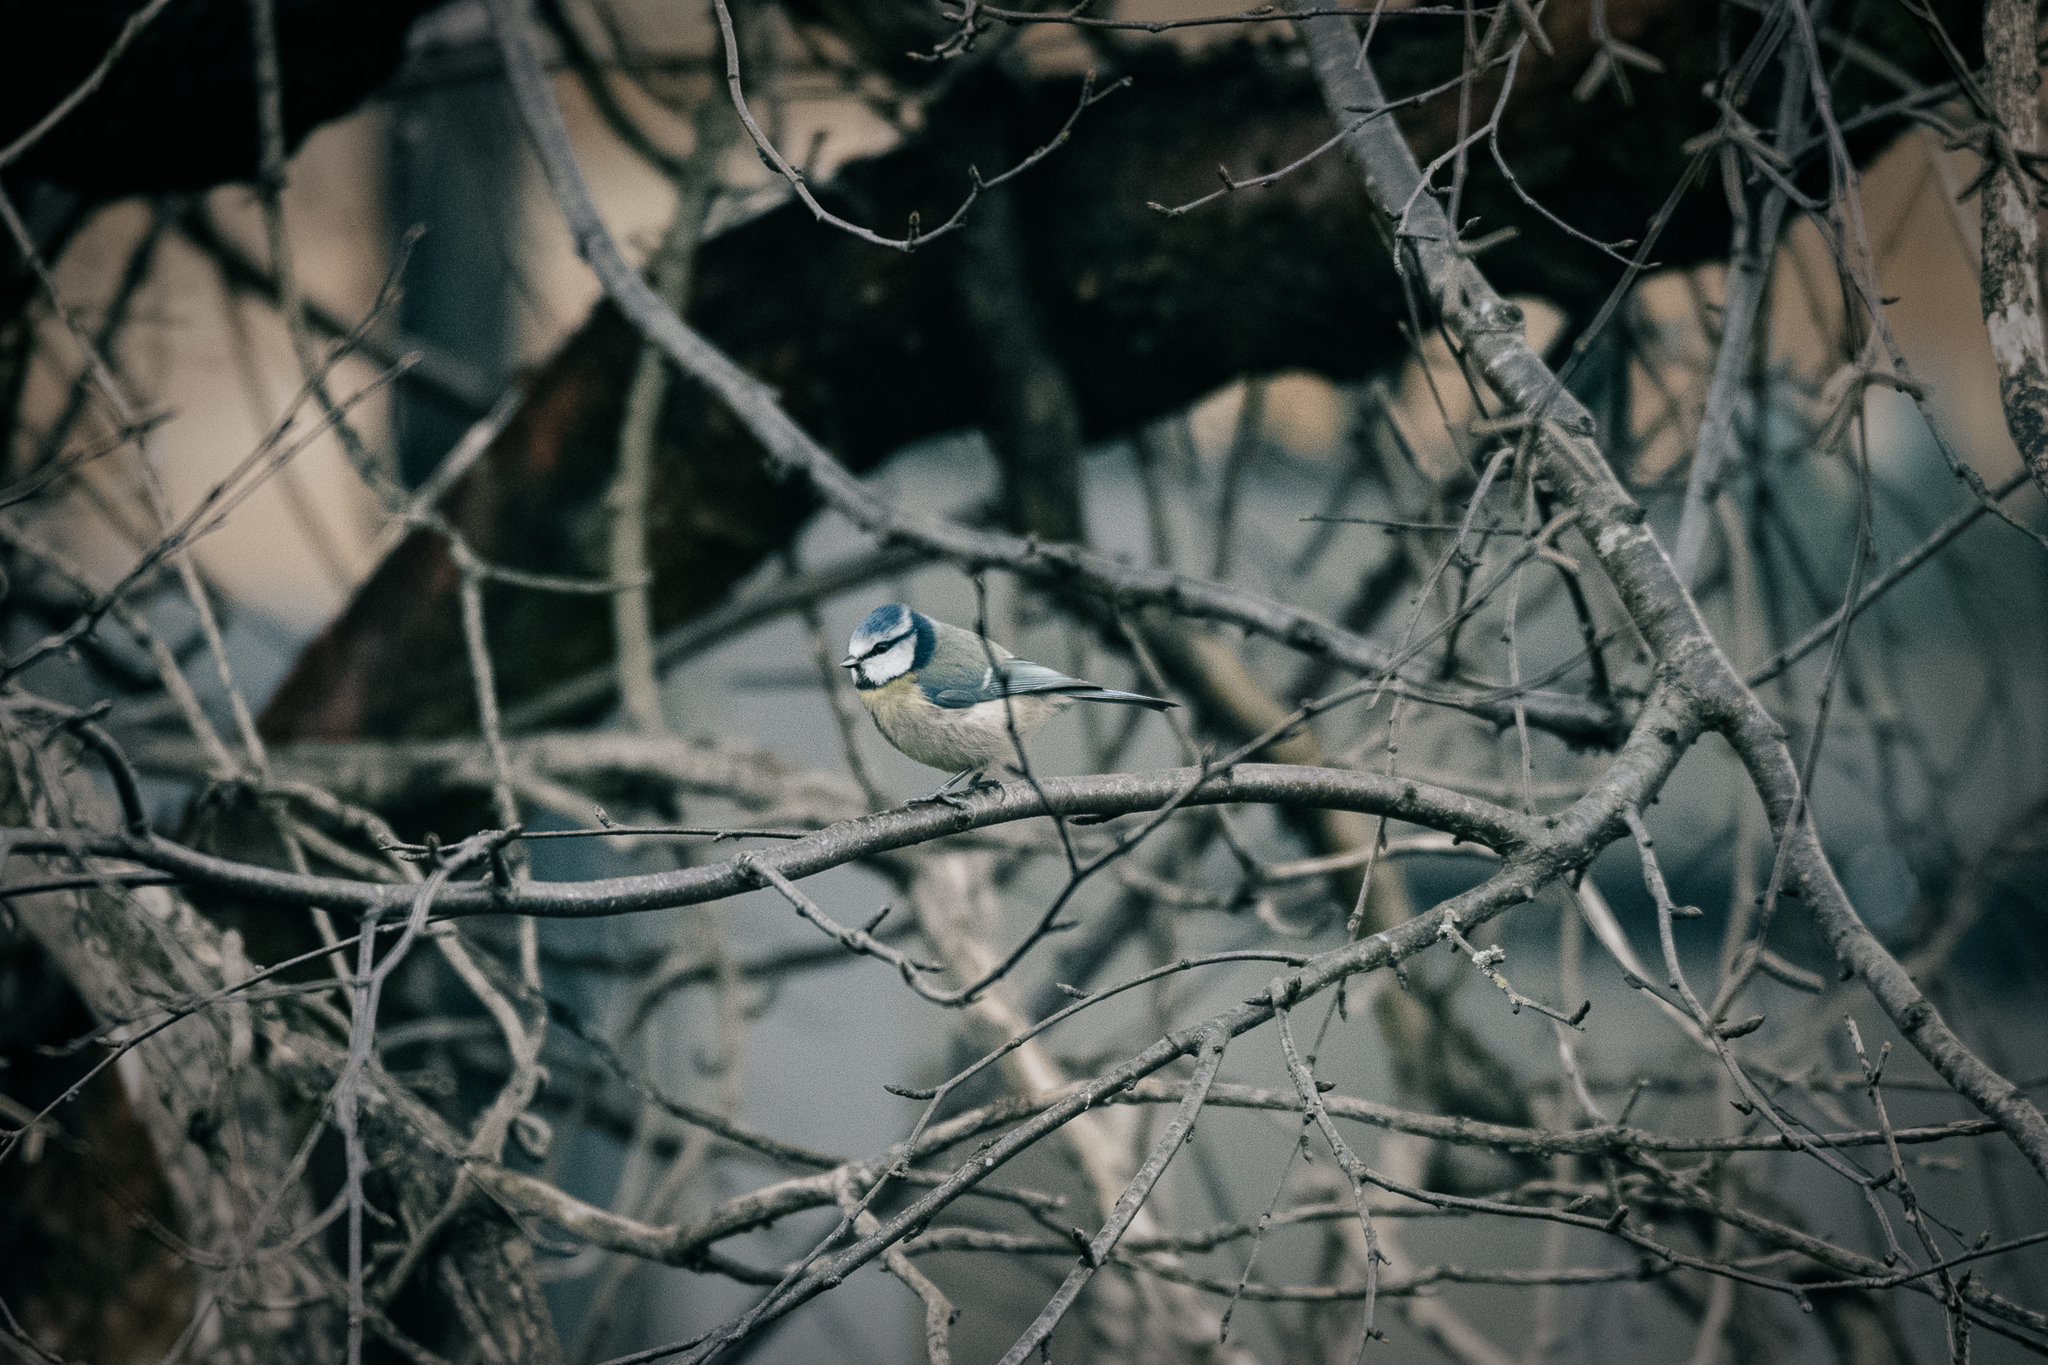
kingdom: Animalia
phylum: Chordata
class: Aves
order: Passeriformes
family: Paridae
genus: Cyanistes
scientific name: Cyanistes caeruleus
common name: Eurasian blue tit
